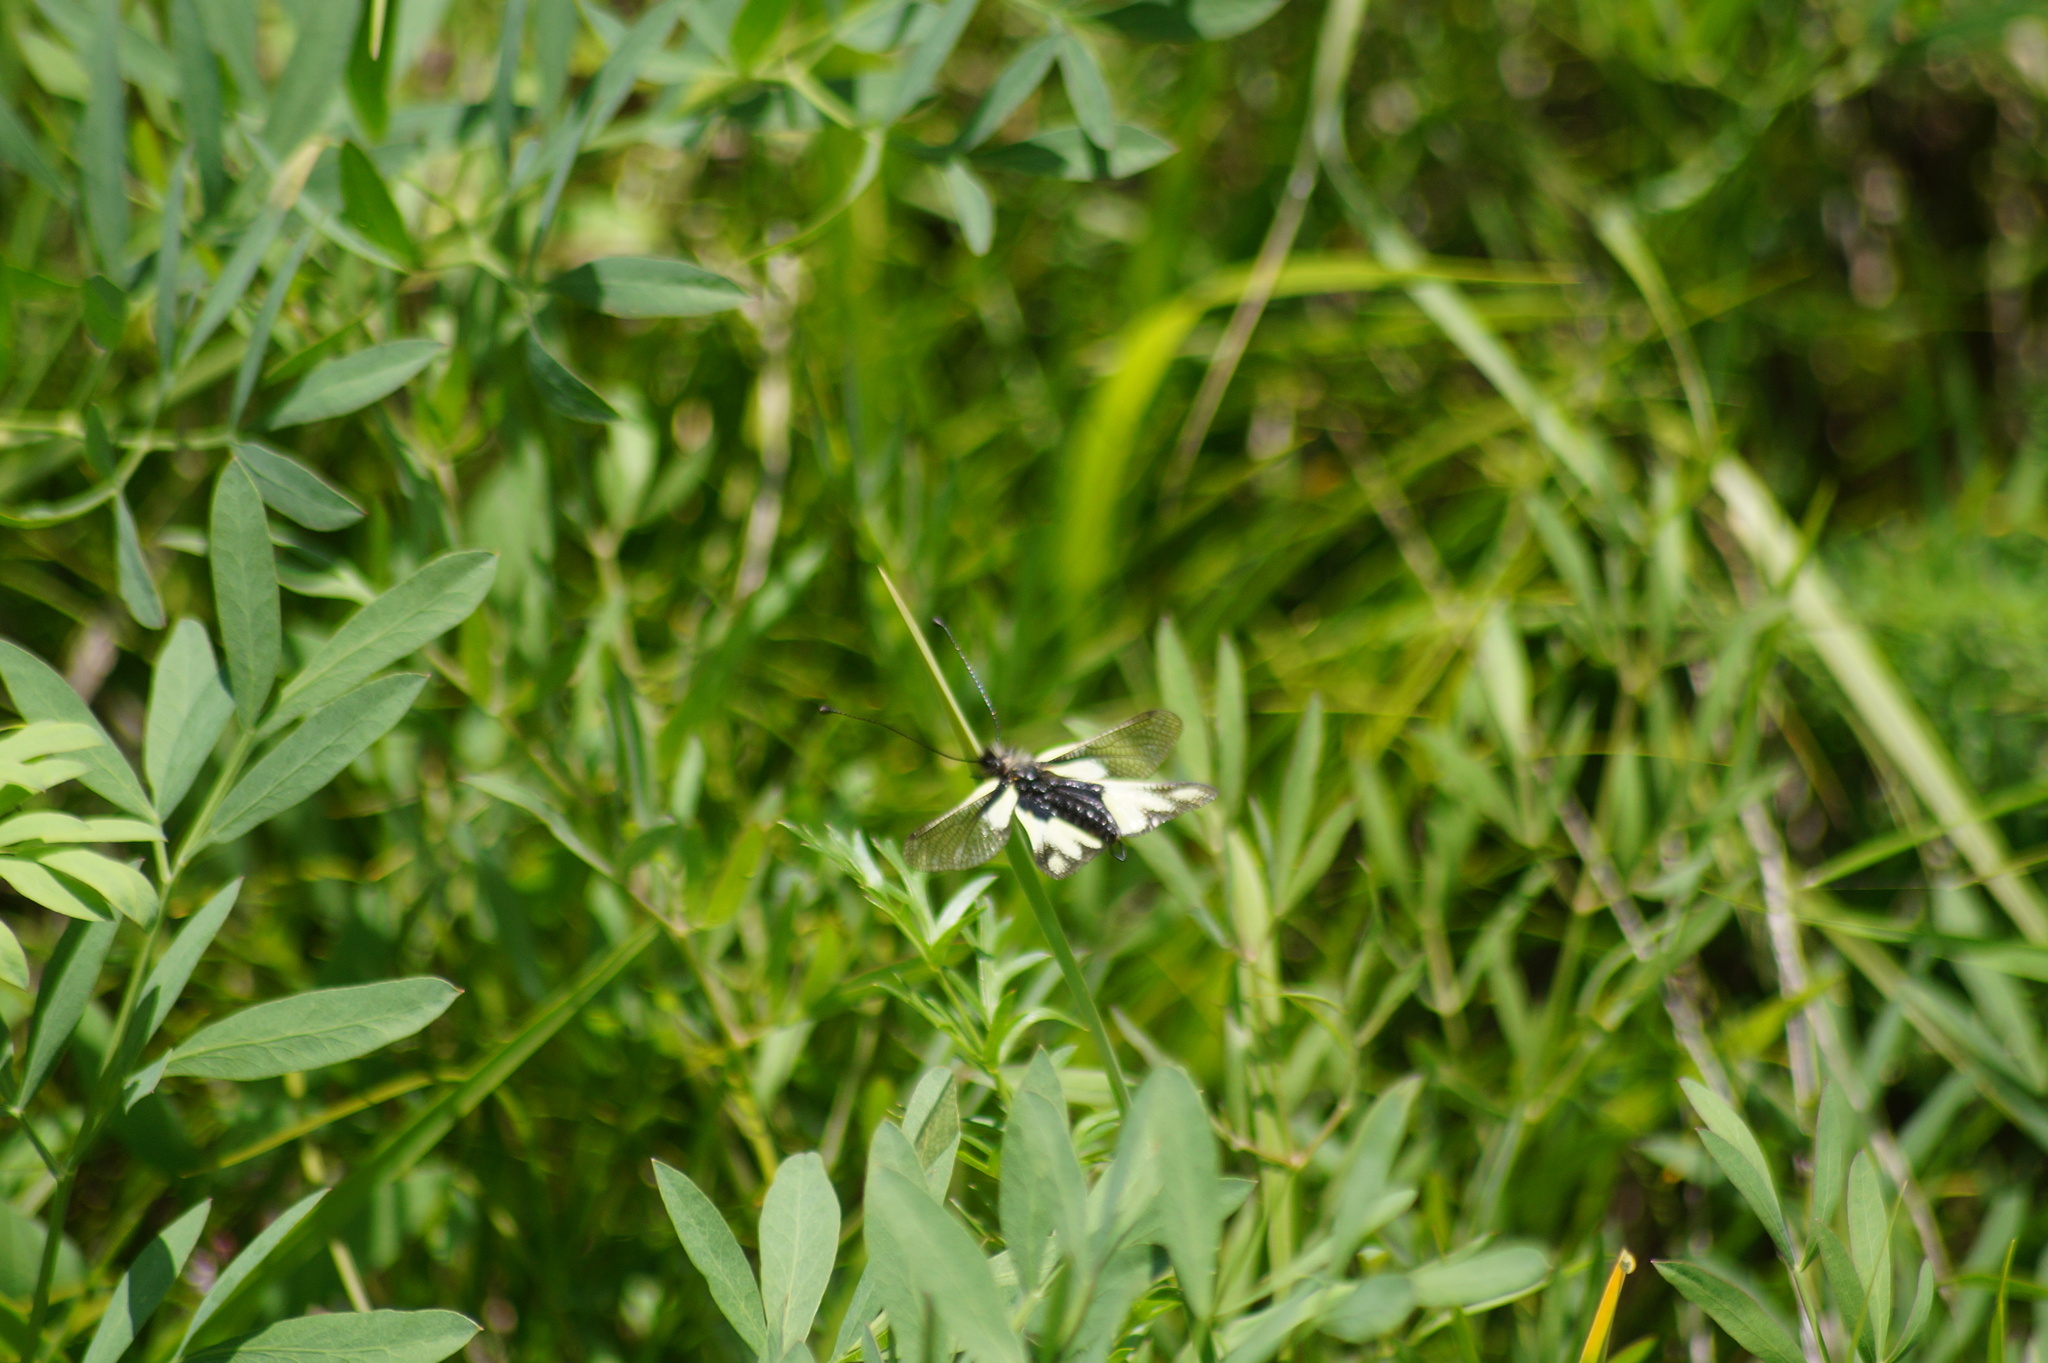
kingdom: Animalia
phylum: Arthropoda
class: Insecta
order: Neuroptera
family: Ascalaphidae
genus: Libelloides
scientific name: Libelloides coccajus
